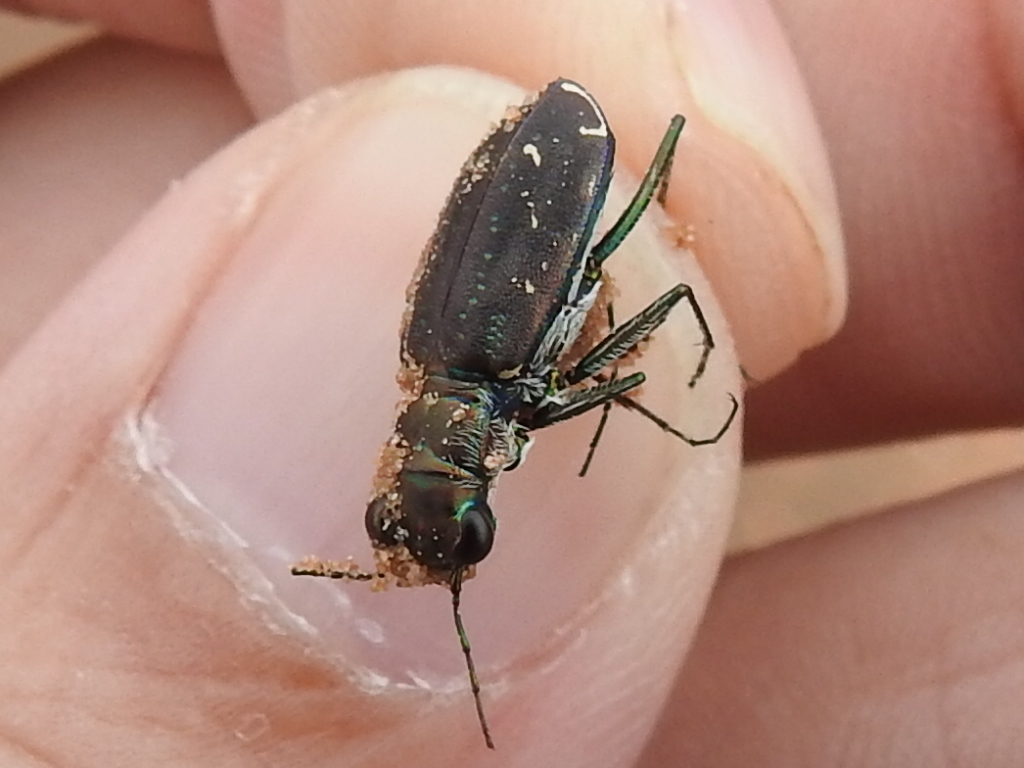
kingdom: Animalia
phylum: Arthropoda
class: Insecta
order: Coleoptera
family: Carabidae
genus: Cicindela
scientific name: Cicindela punctulata
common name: Punctured tiger beetle
